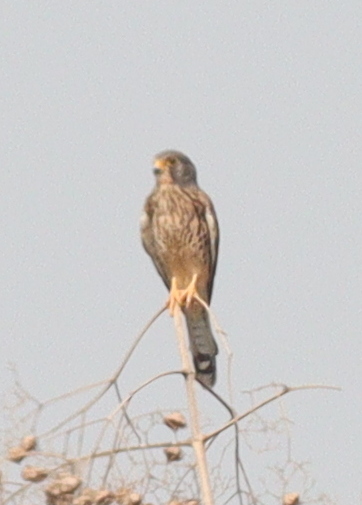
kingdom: Animalia
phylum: Chordata
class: Aves
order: Falconiformes
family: Falconidae
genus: Falco
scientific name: Falco tinnunculus
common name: Common kestrel
